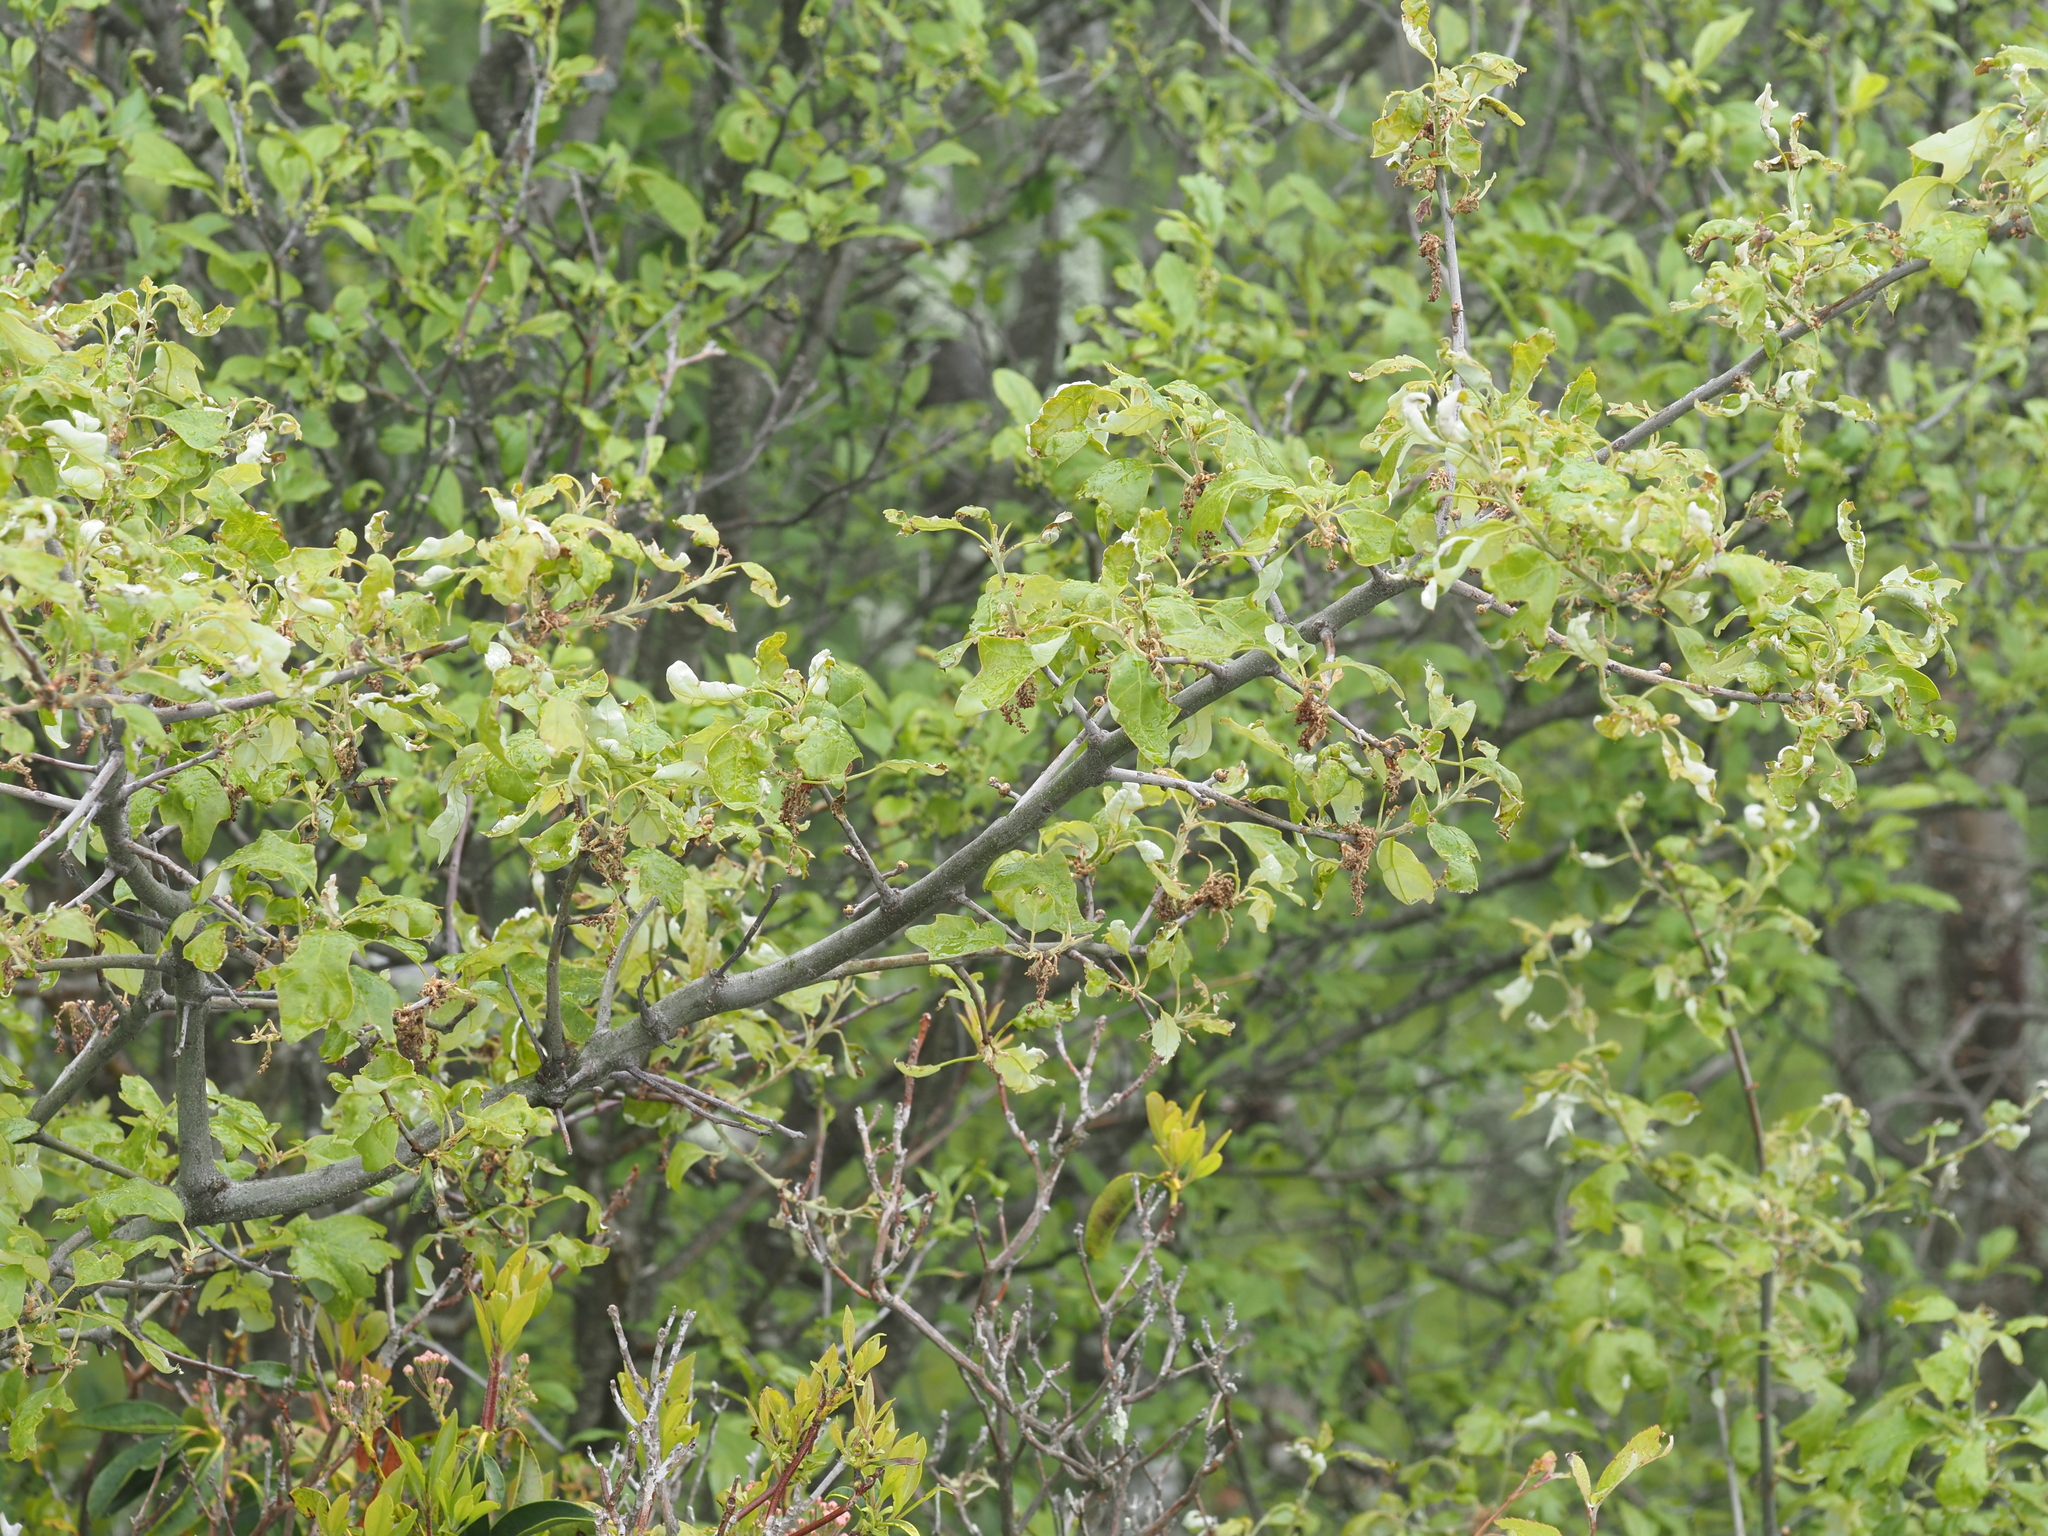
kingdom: Plantae
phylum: Tracheophyta
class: Magnoliopsida
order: Fagales
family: Fagaceae
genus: Quercus
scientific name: Quercus ilicifolia
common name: Bear oak
